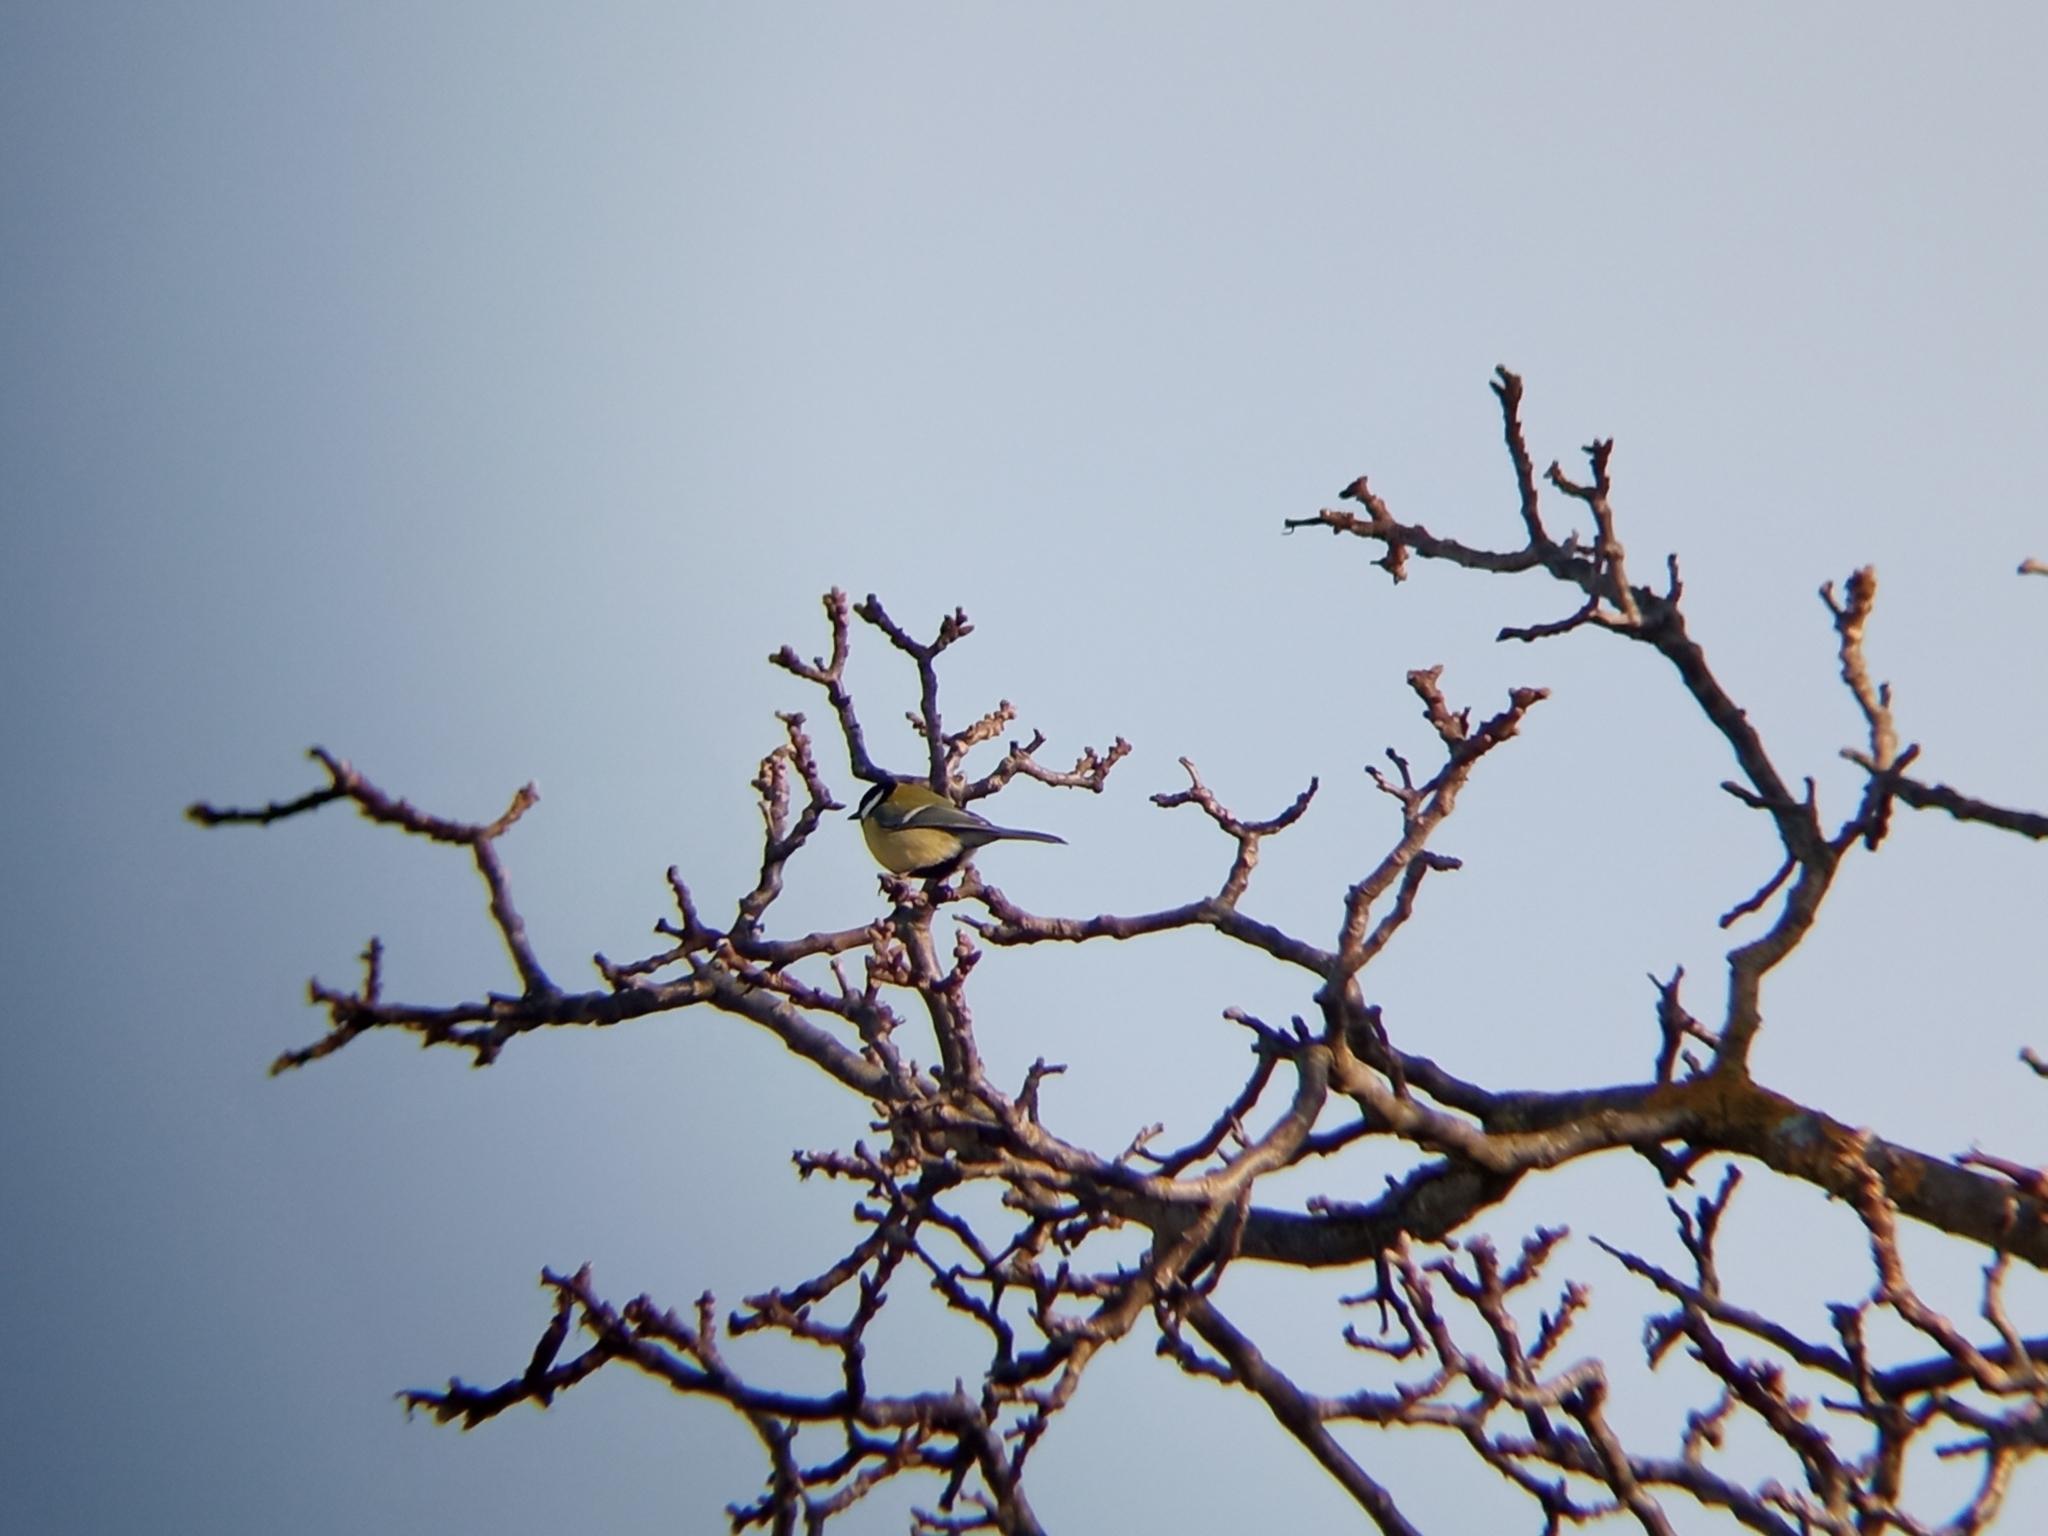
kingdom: Animalia
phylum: Chordata
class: Aves
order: Passeriformes
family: Paridae
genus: Parus
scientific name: Parus major
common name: Great tit
